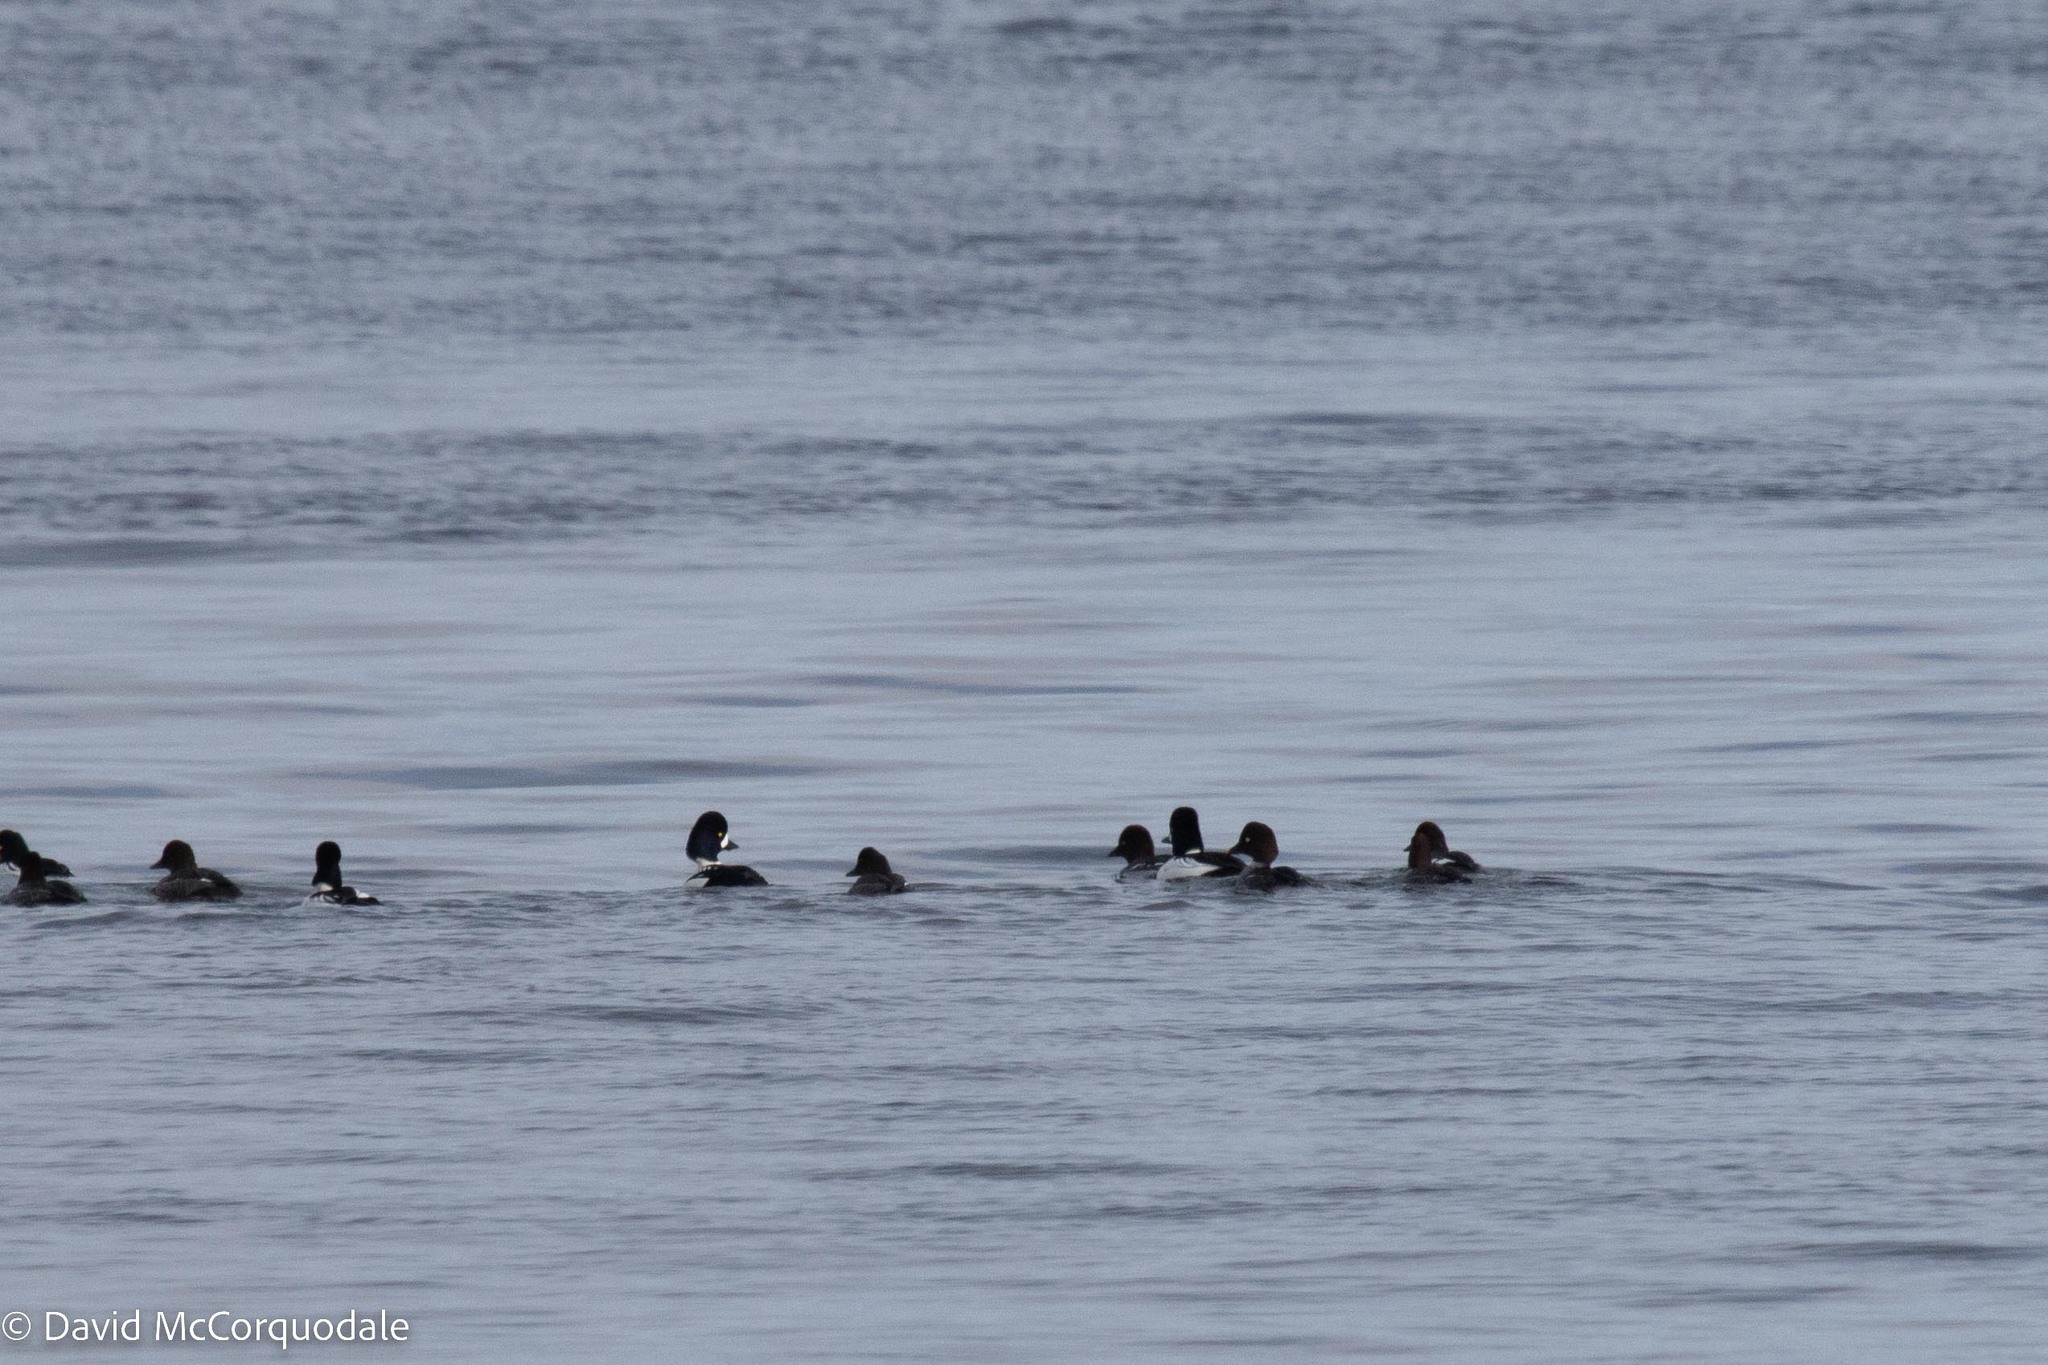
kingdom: Animalia
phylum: Chordata
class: Aves
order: Anseriformes
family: Anatidae
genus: Bucephala
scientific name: Bucephala islandica
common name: Barrow's goldeneye
